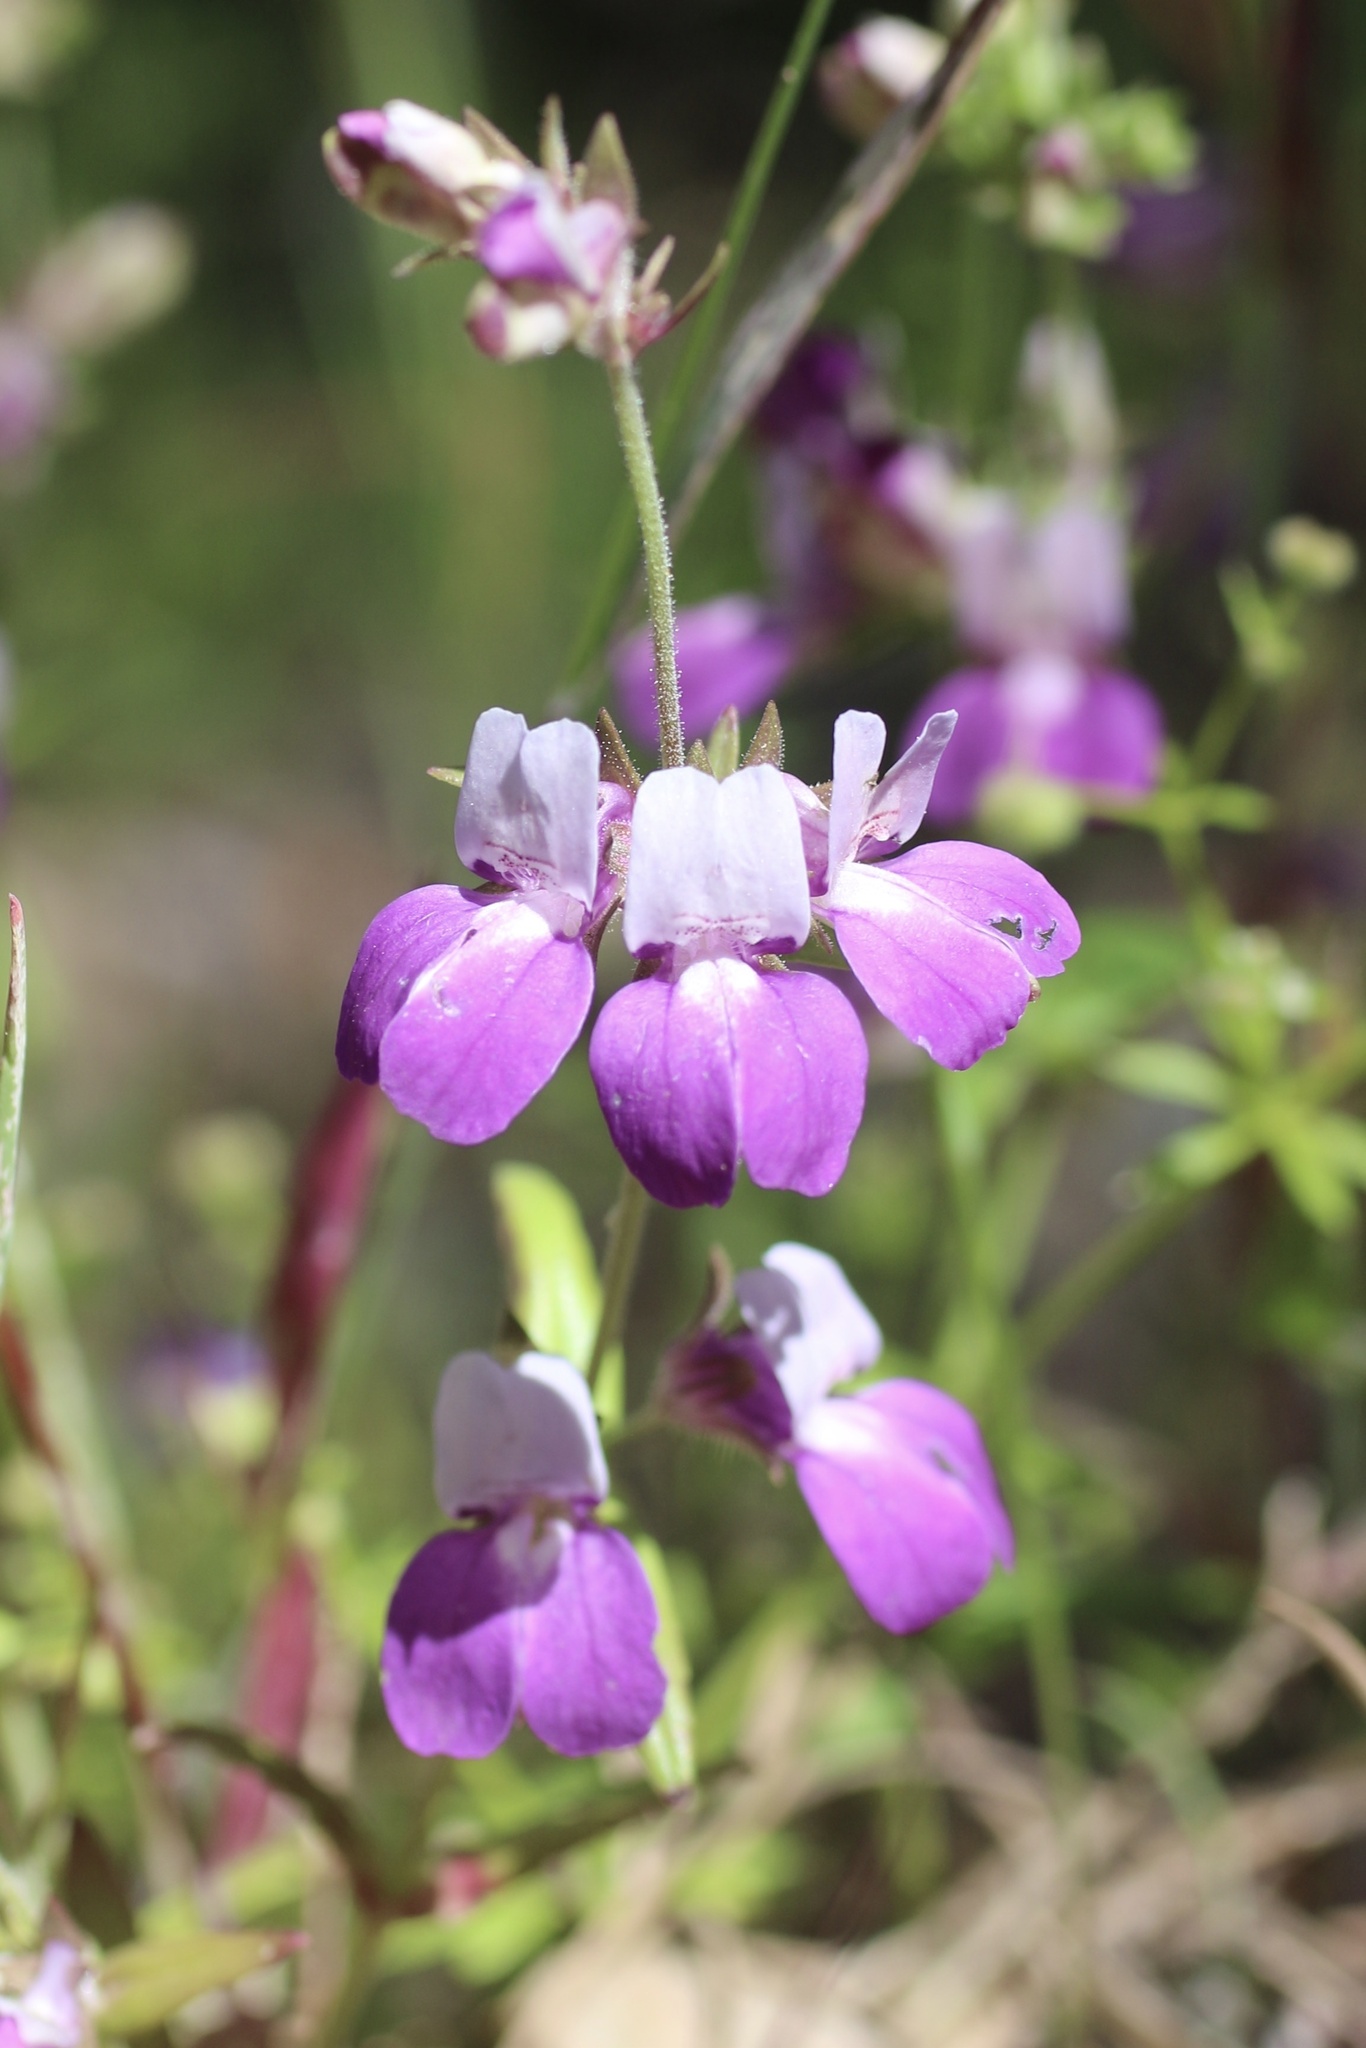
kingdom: Plantae
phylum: Tracheophyta
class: Magnoliopsida
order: Lamiales
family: Plantaginaceae
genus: Collinsia
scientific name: Collinsia heterophylla
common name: Chinese-houses
